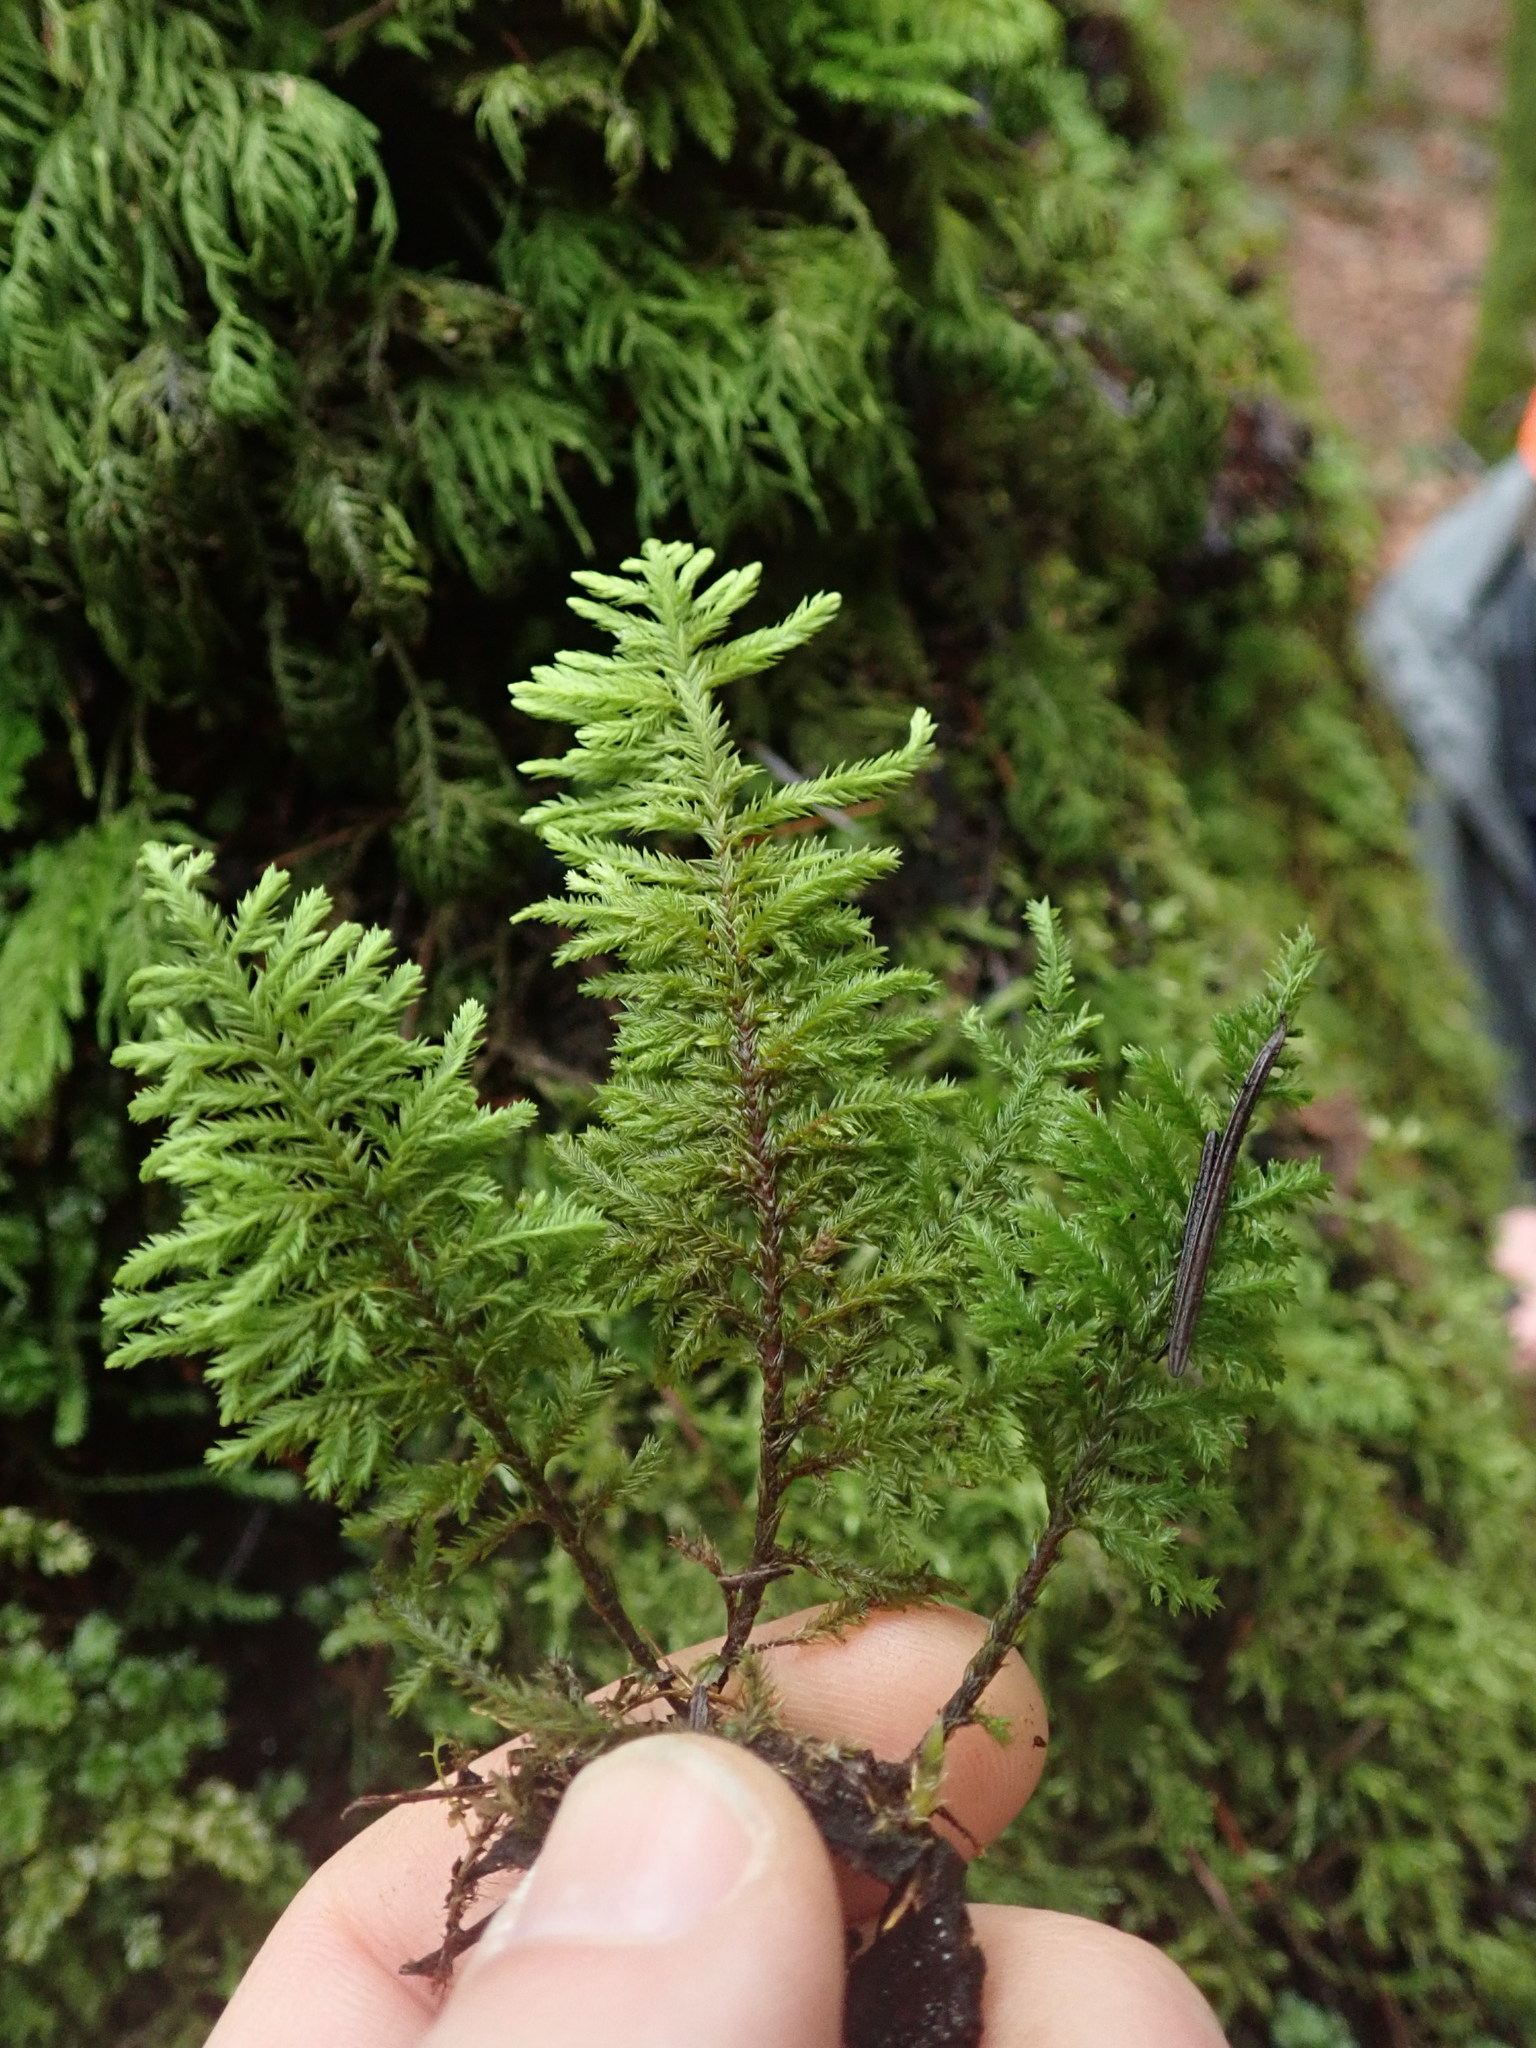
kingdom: Plantae
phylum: Bryophyta
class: Bryopsida
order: Hypnales
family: Cryphaeaceae
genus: Dendroalsia
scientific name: Dendroalsia abietina
